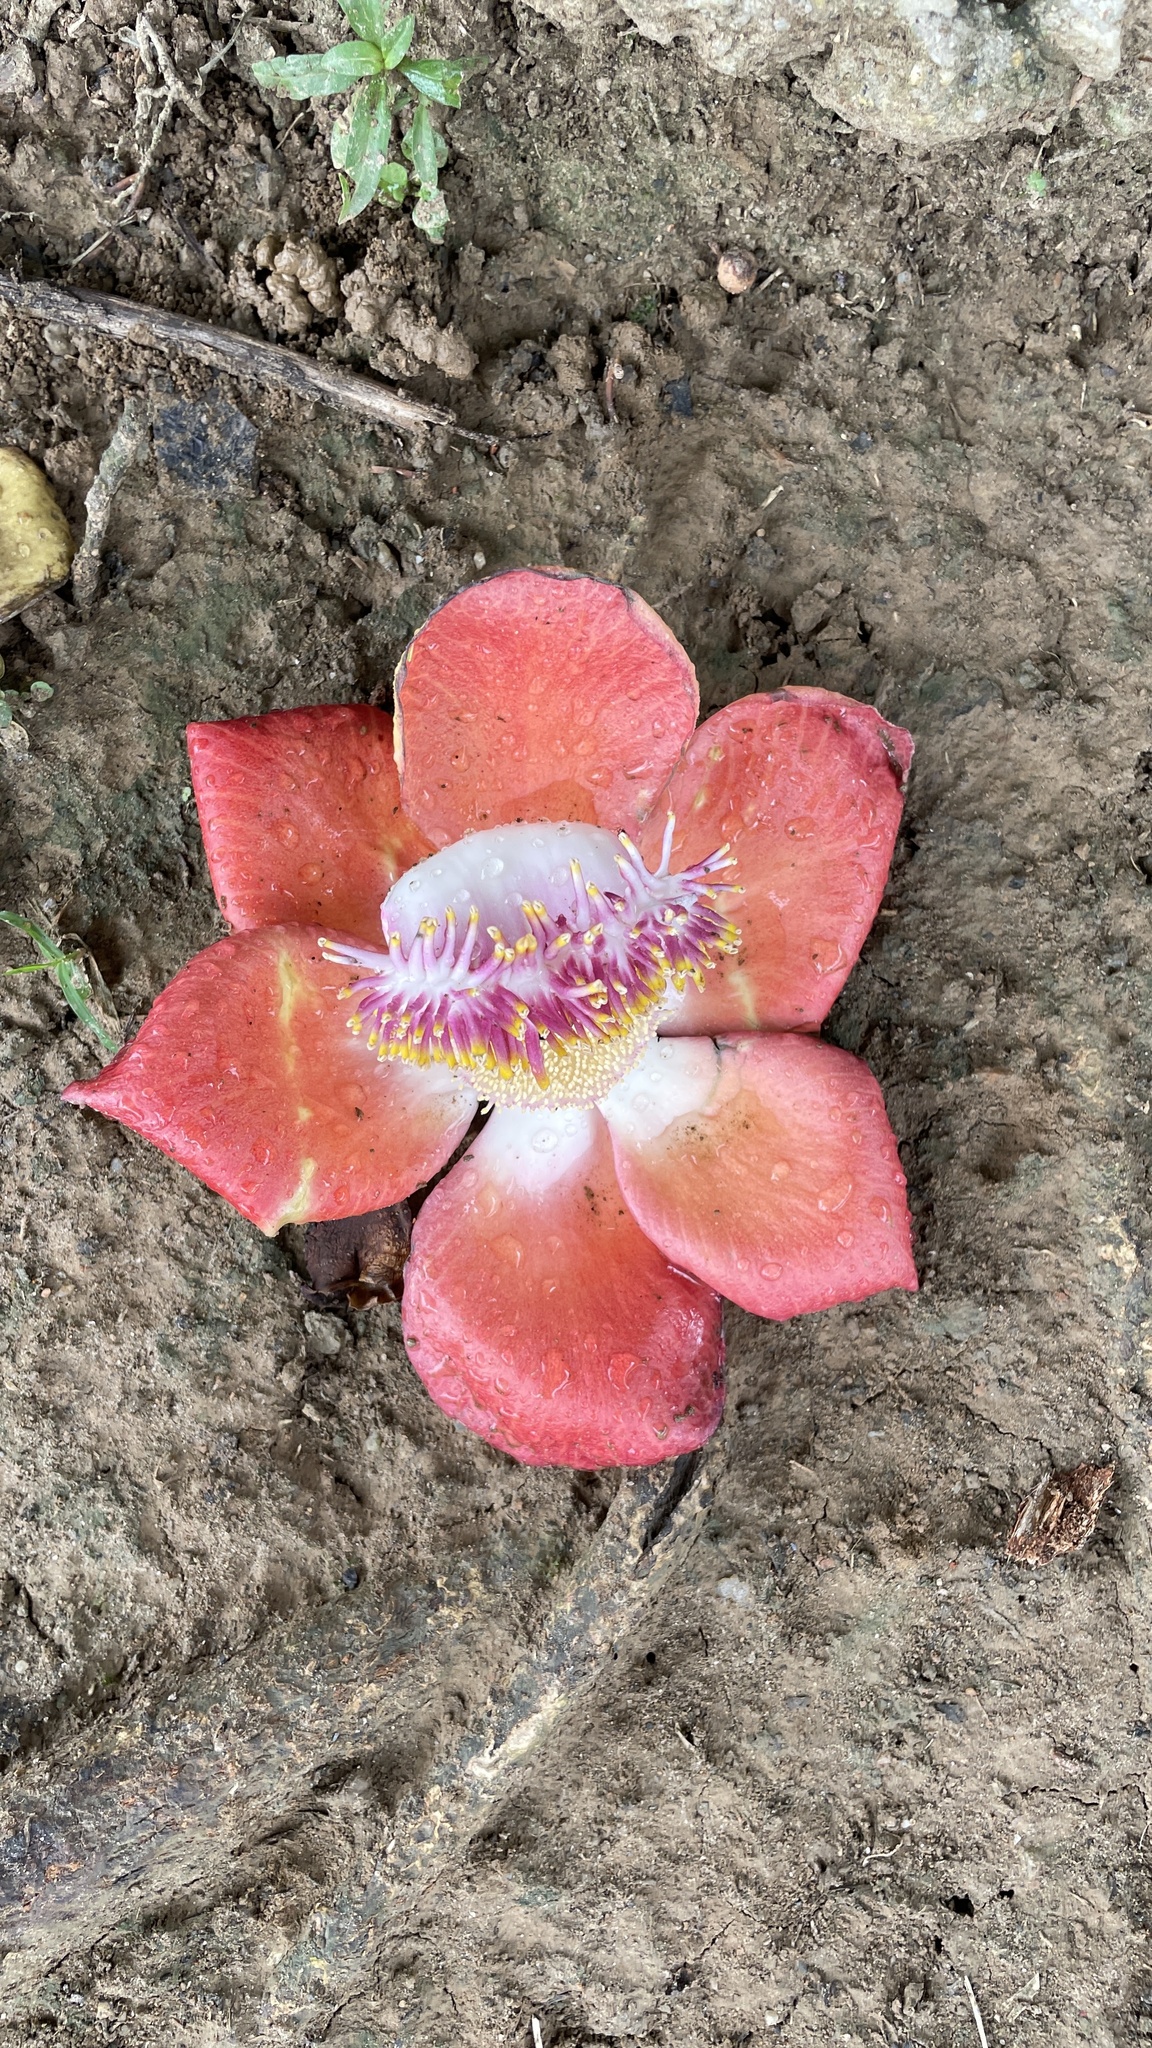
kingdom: Plantae
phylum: Tracheophyta
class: Magnoliopsida
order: Ericales
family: Lecythidaceae
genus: Couroupita
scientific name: Couroupita guianensis
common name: Cannonball tree
